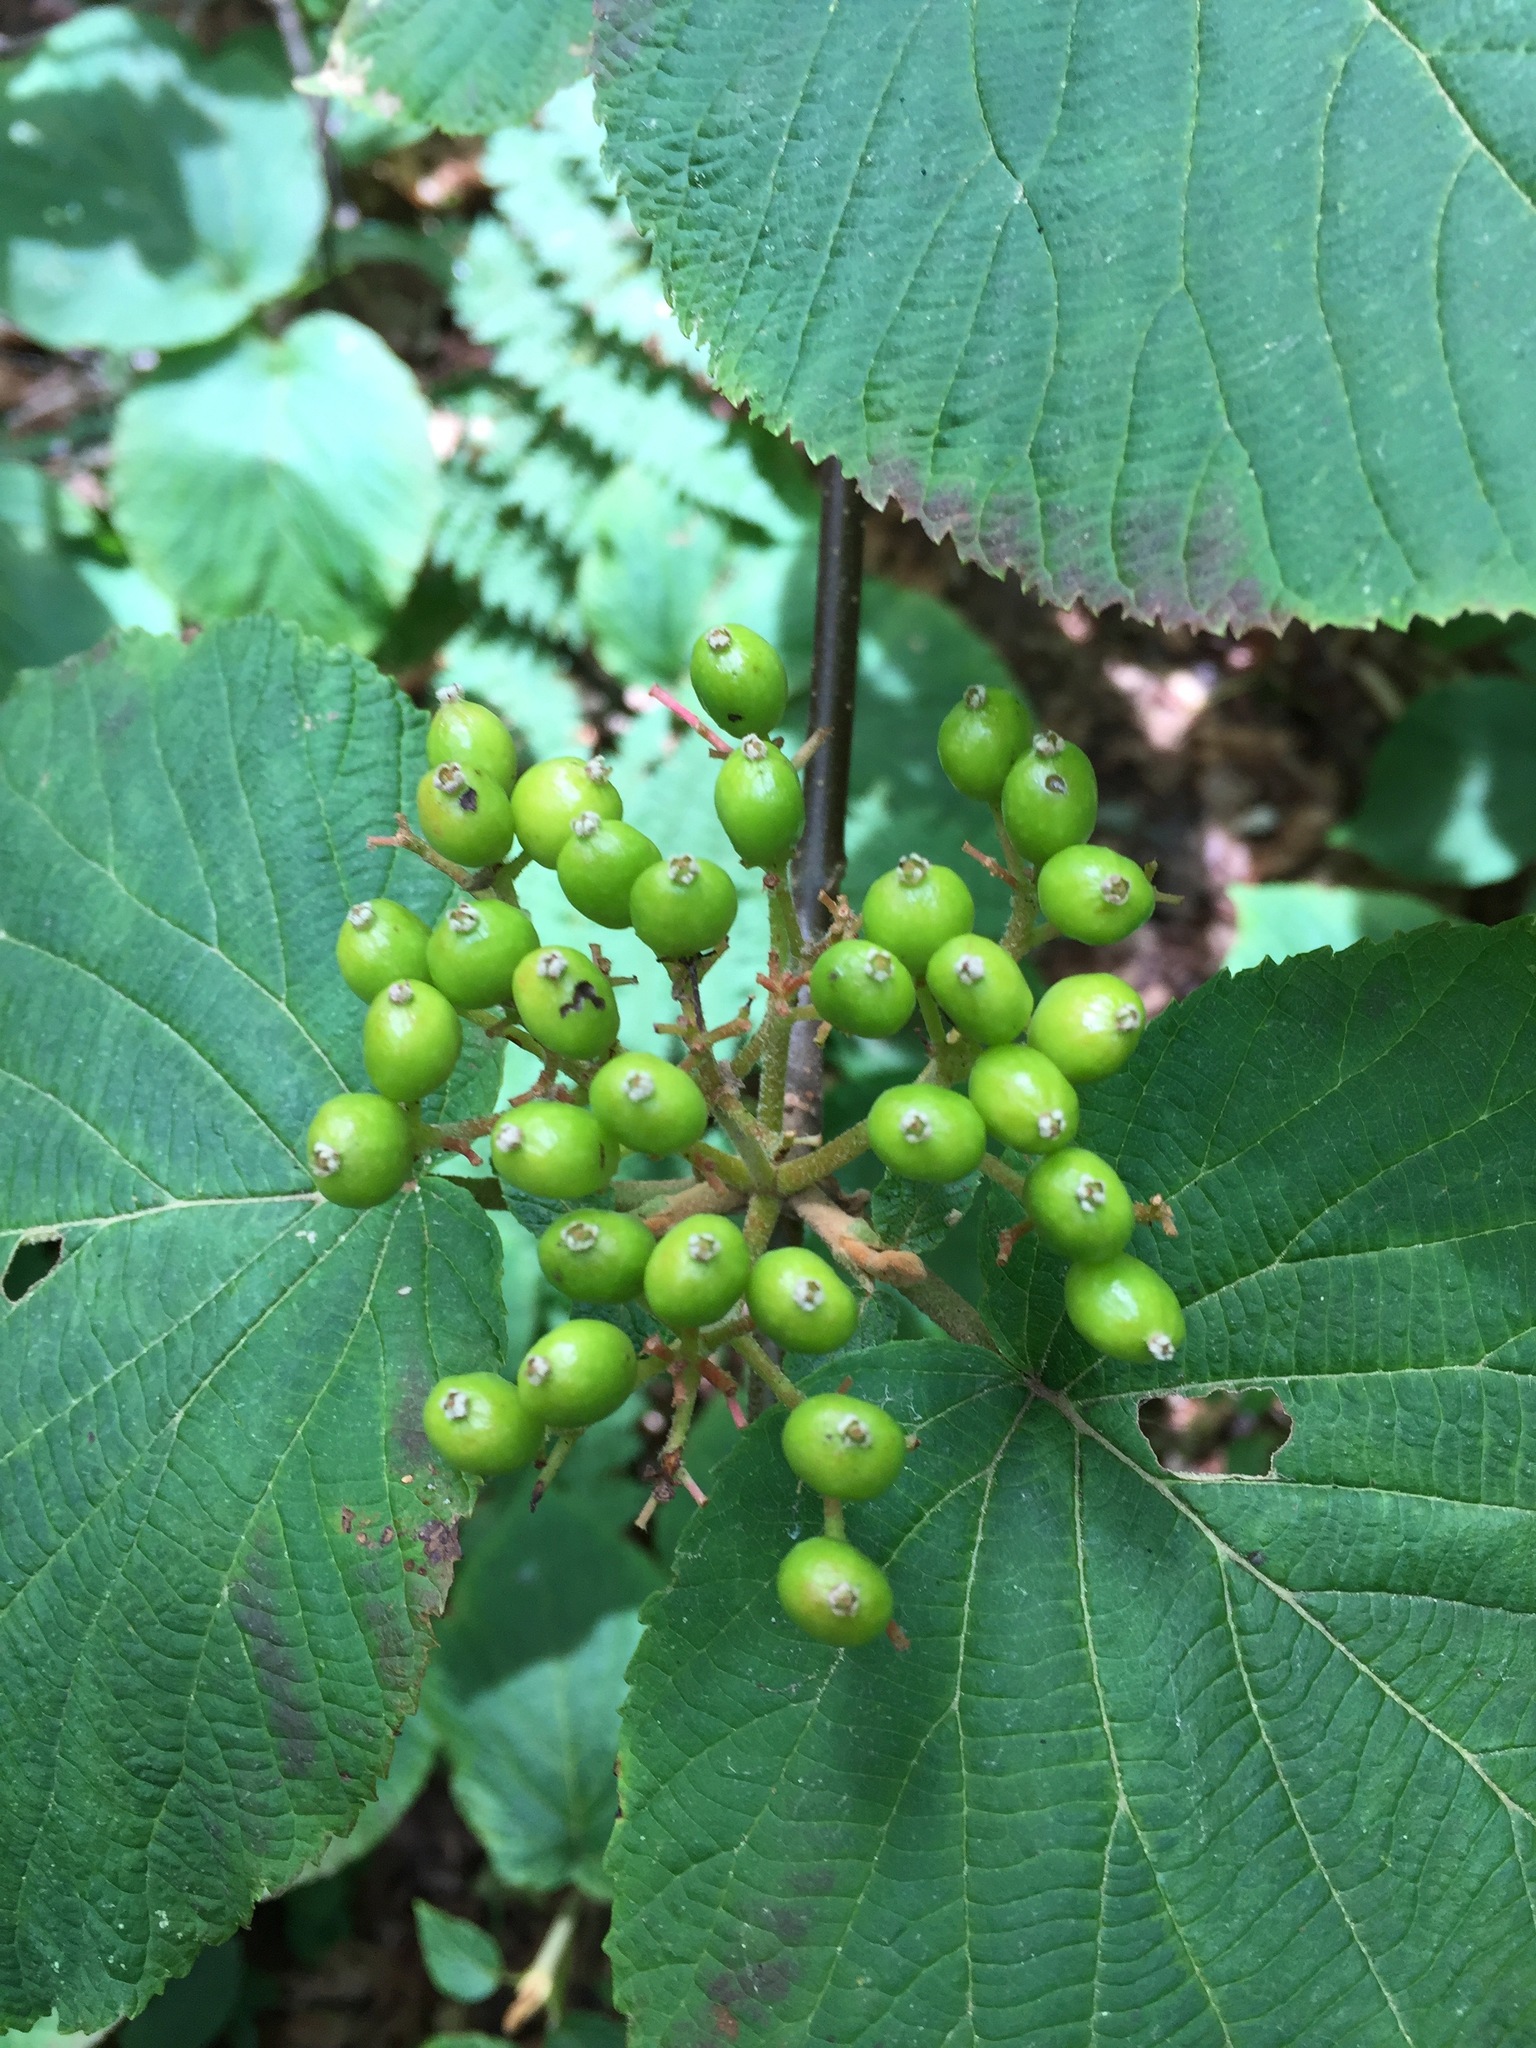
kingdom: Plantae
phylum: Tracheophyta
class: Magnoliopsida
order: Dipsacales
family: Viburnaceae
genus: Viburnum
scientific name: Viburnum lantanoides
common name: Hobblebush
